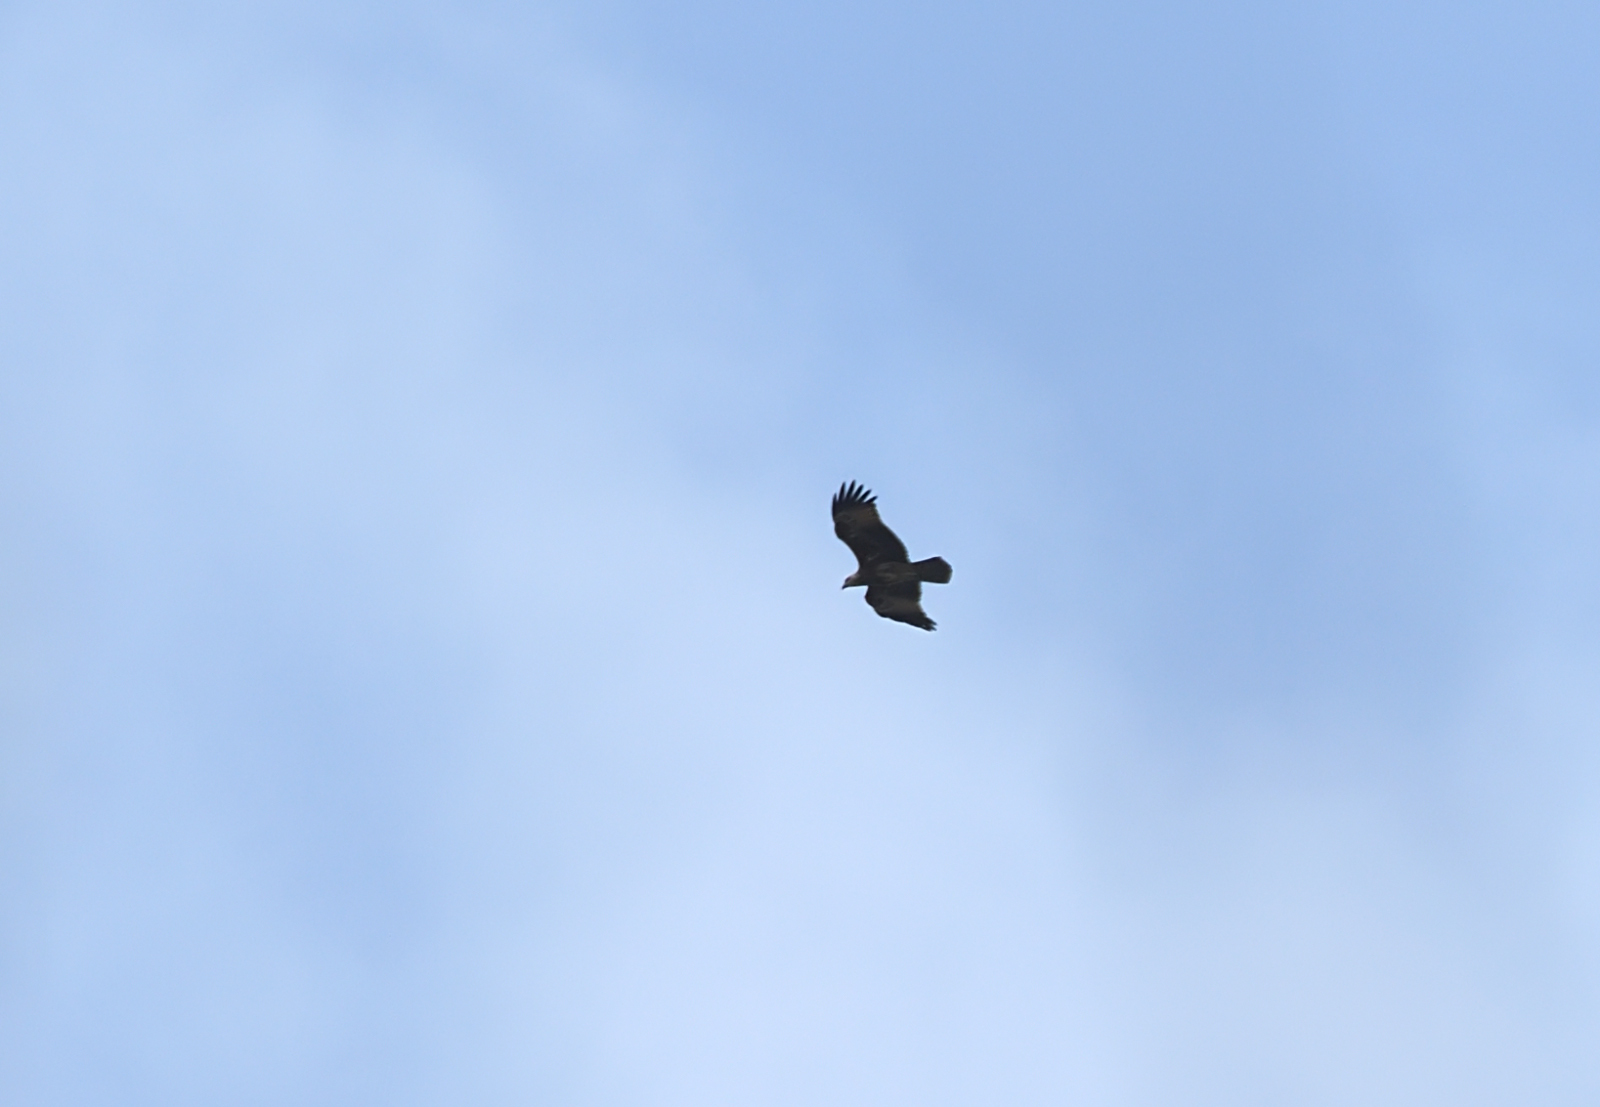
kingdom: Animalia
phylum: Chordata
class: Aves
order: Accipitriformes
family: Accipitridae
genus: Haliastur
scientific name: Haliastur indus
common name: Brahminy kite
